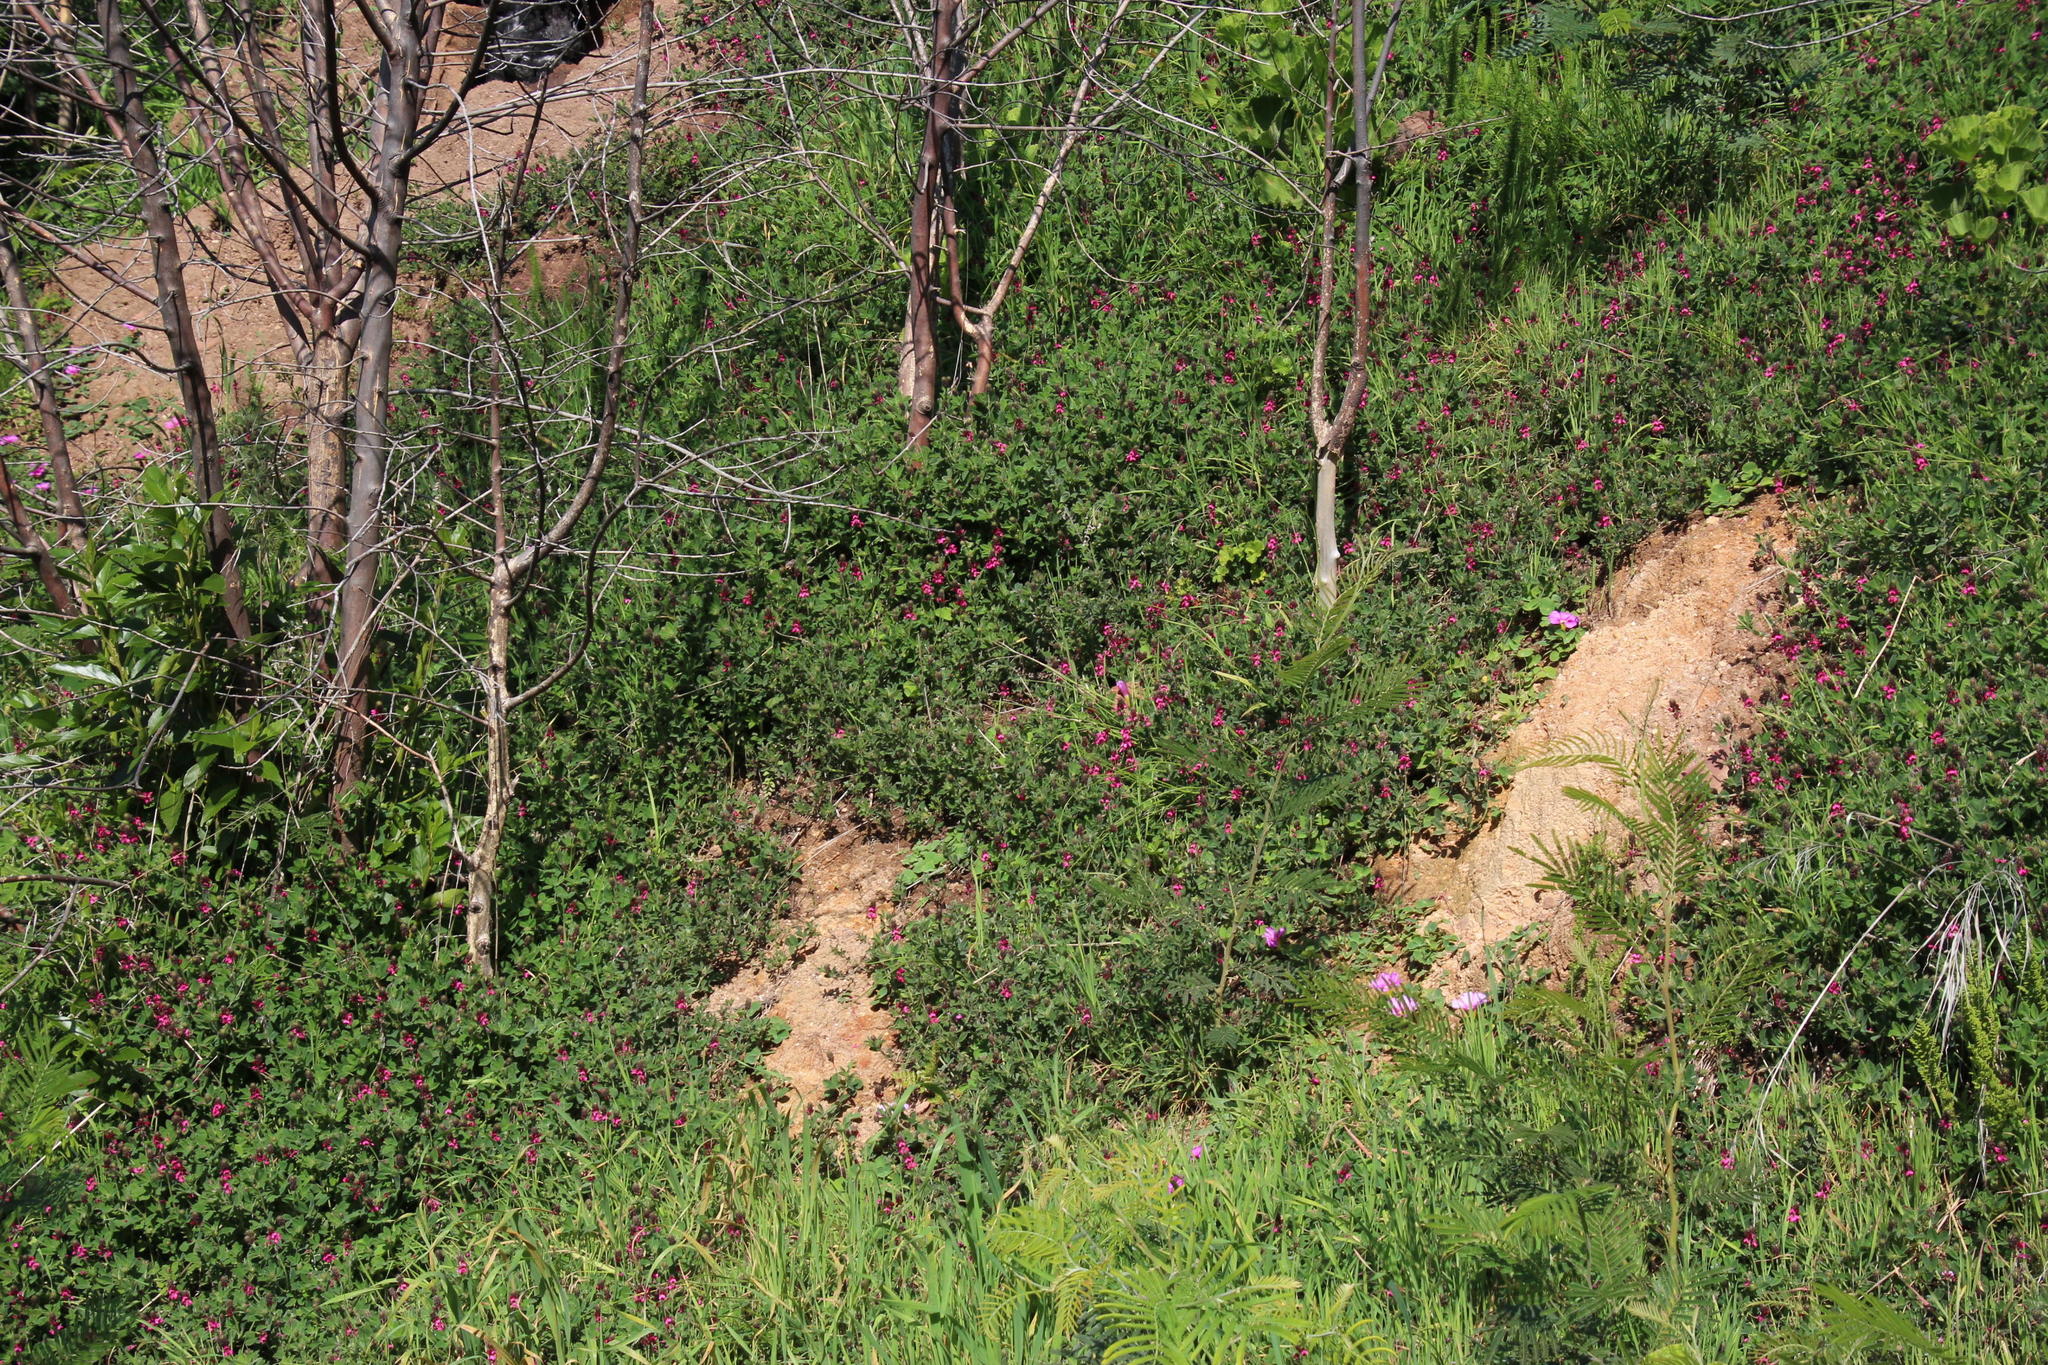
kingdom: Plantae
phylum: Tracheophyta
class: Magnoliopsida
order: Fabales
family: Fabaceae
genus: Indigofera
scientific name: Indigofera incana
